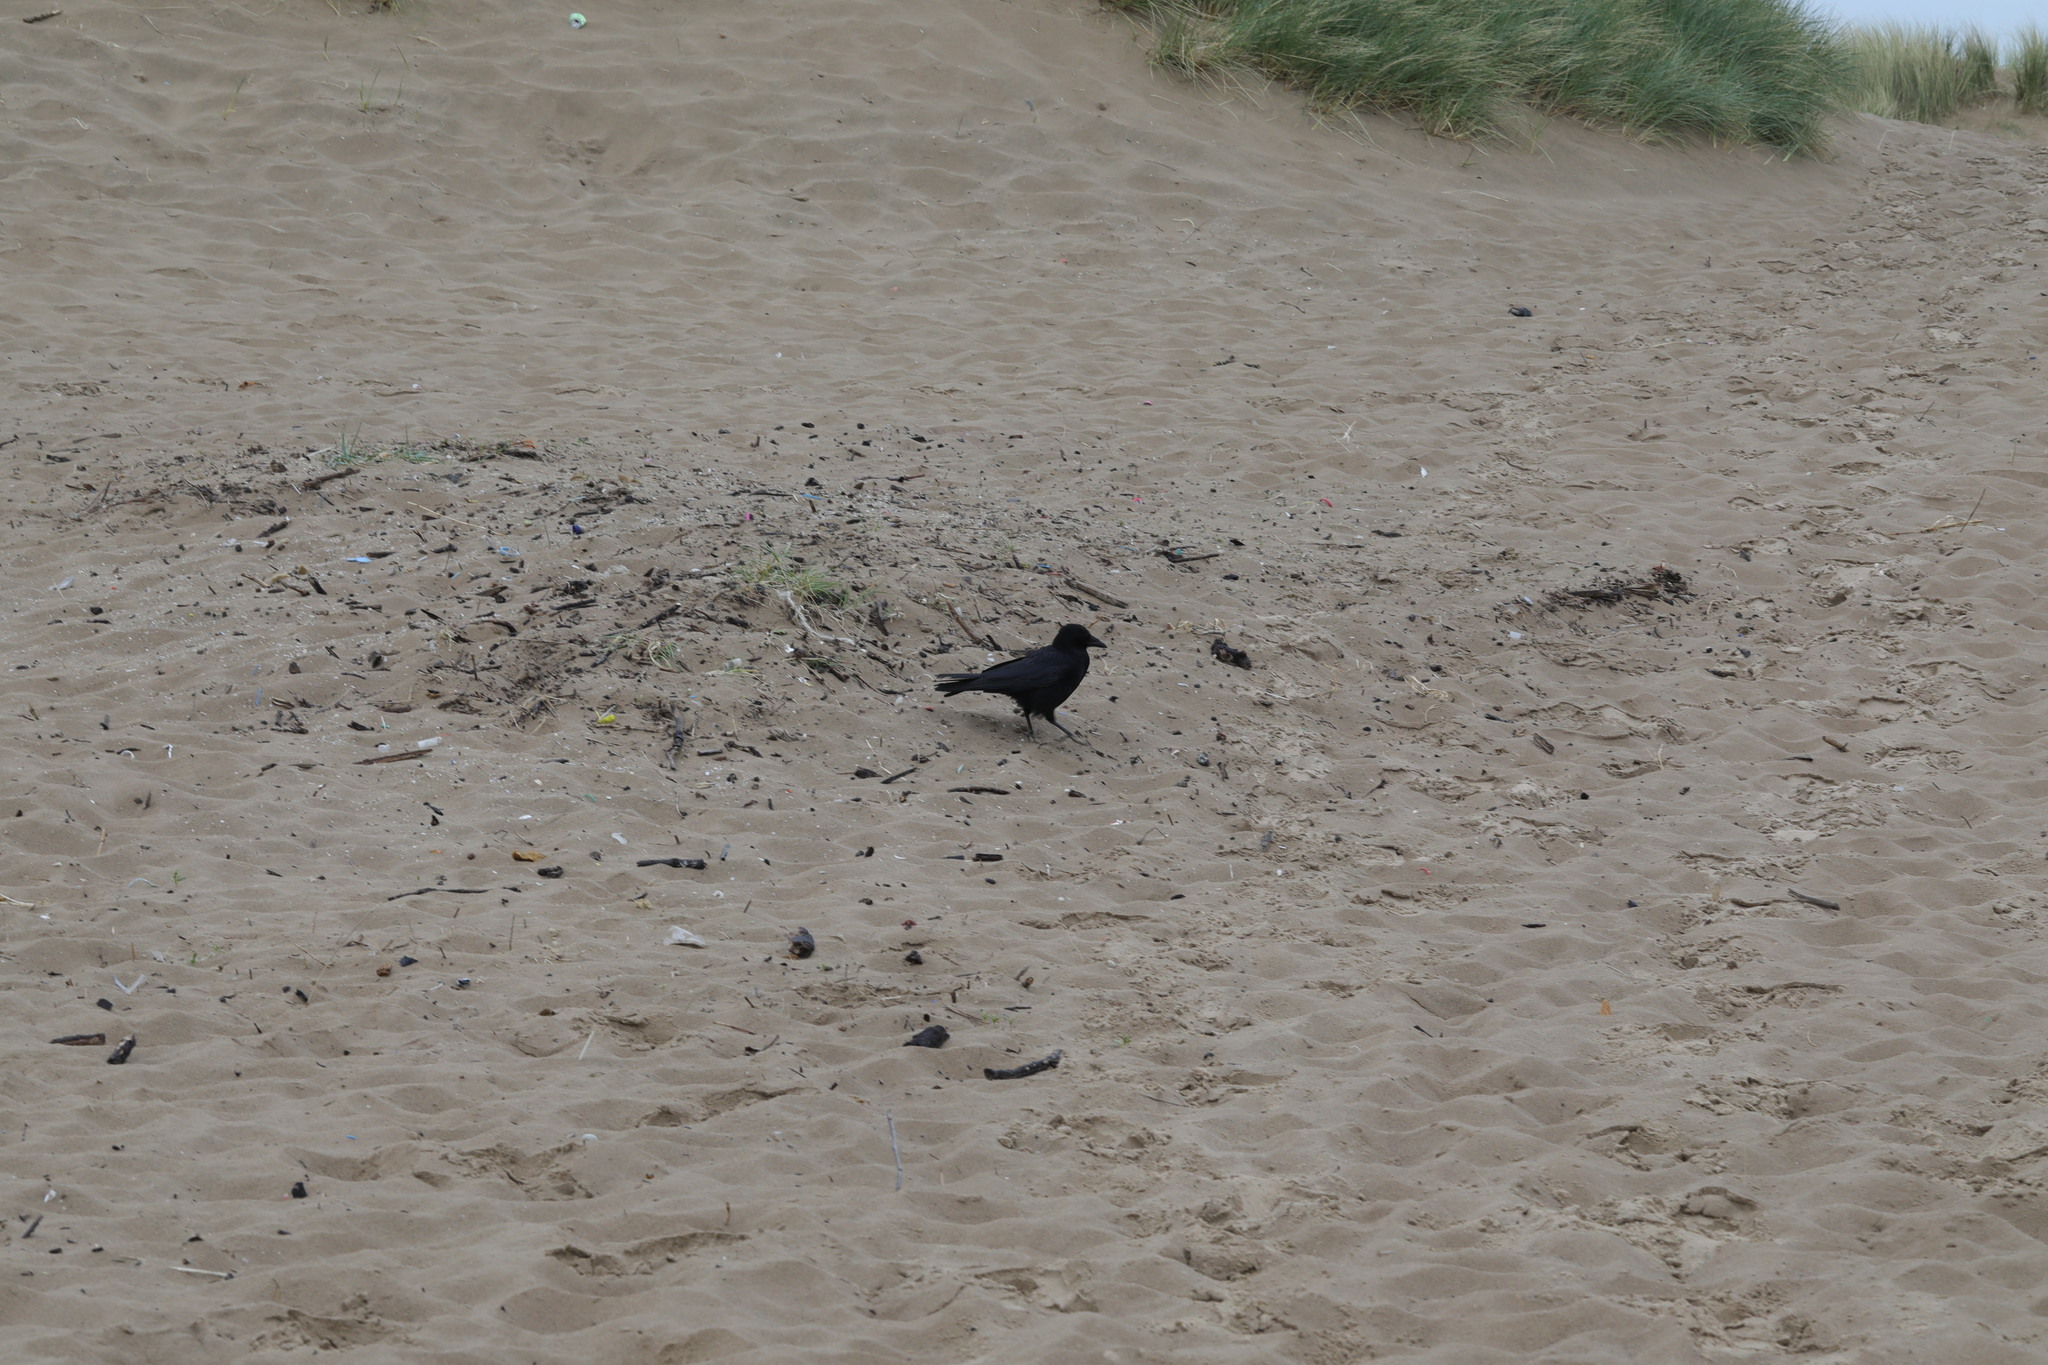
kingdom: Animalia
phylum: Chordata
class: Aves
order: Passeriformes
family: Corvidae
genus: Corvus
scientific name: Corvus corone
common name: Carrion crow
